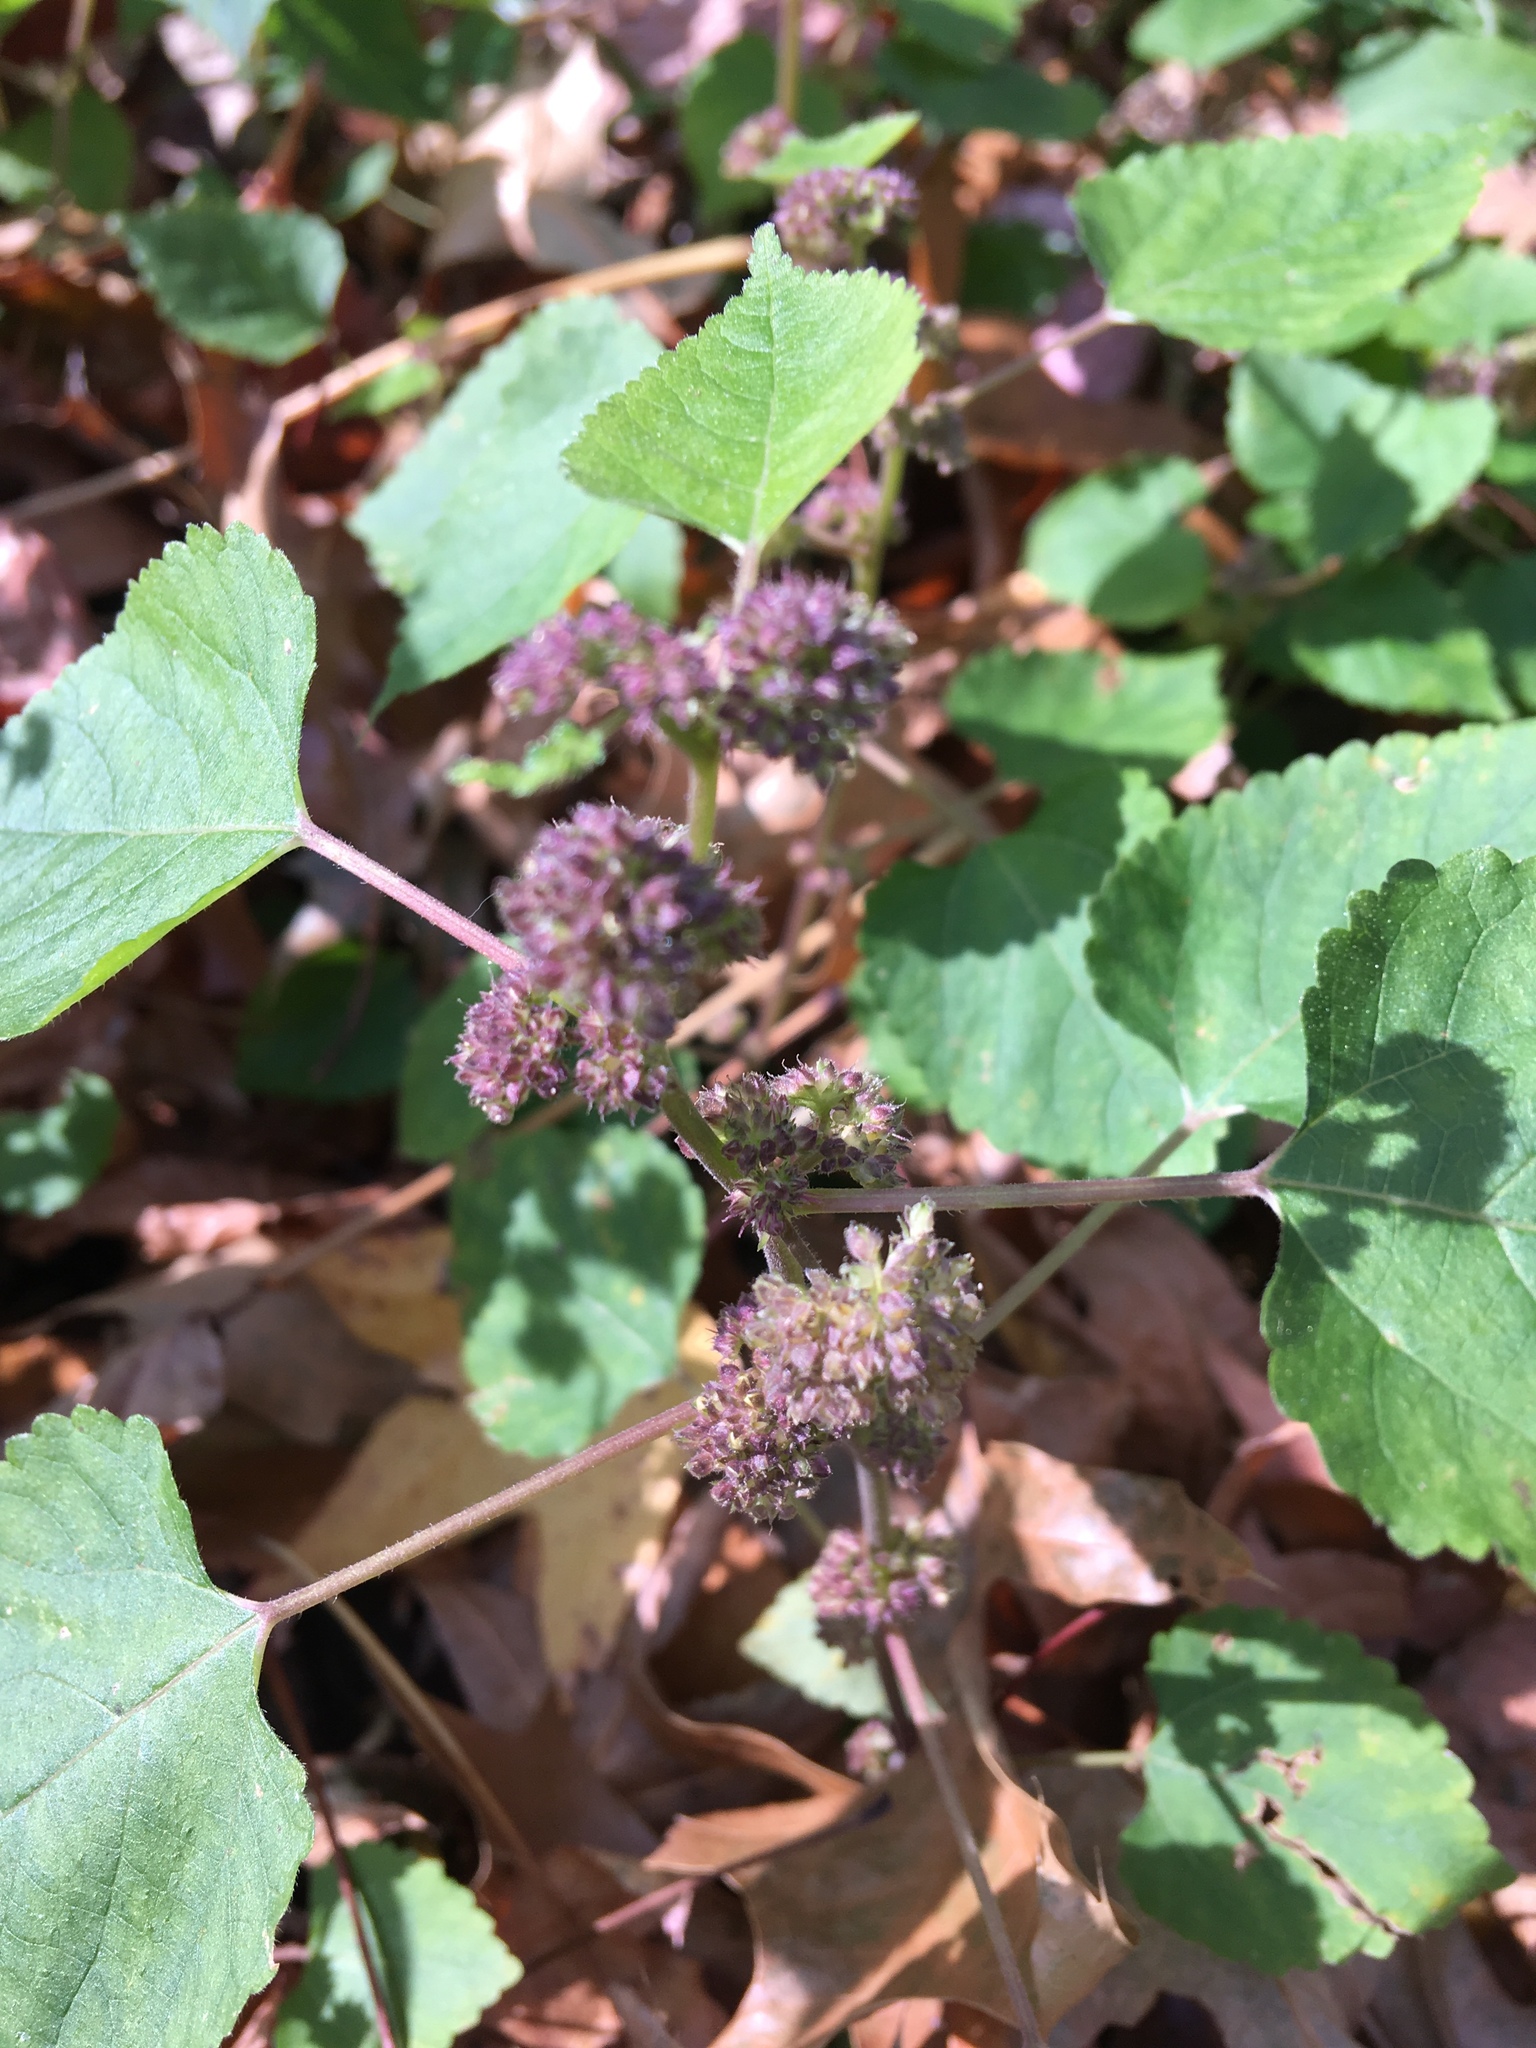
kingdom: Plantae
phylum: Tracheophyta
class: Magnoliopsida
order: Rosales
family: Moraceae
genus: Fatoua
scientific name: Fatoua villosa
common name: Hairy crabweed
